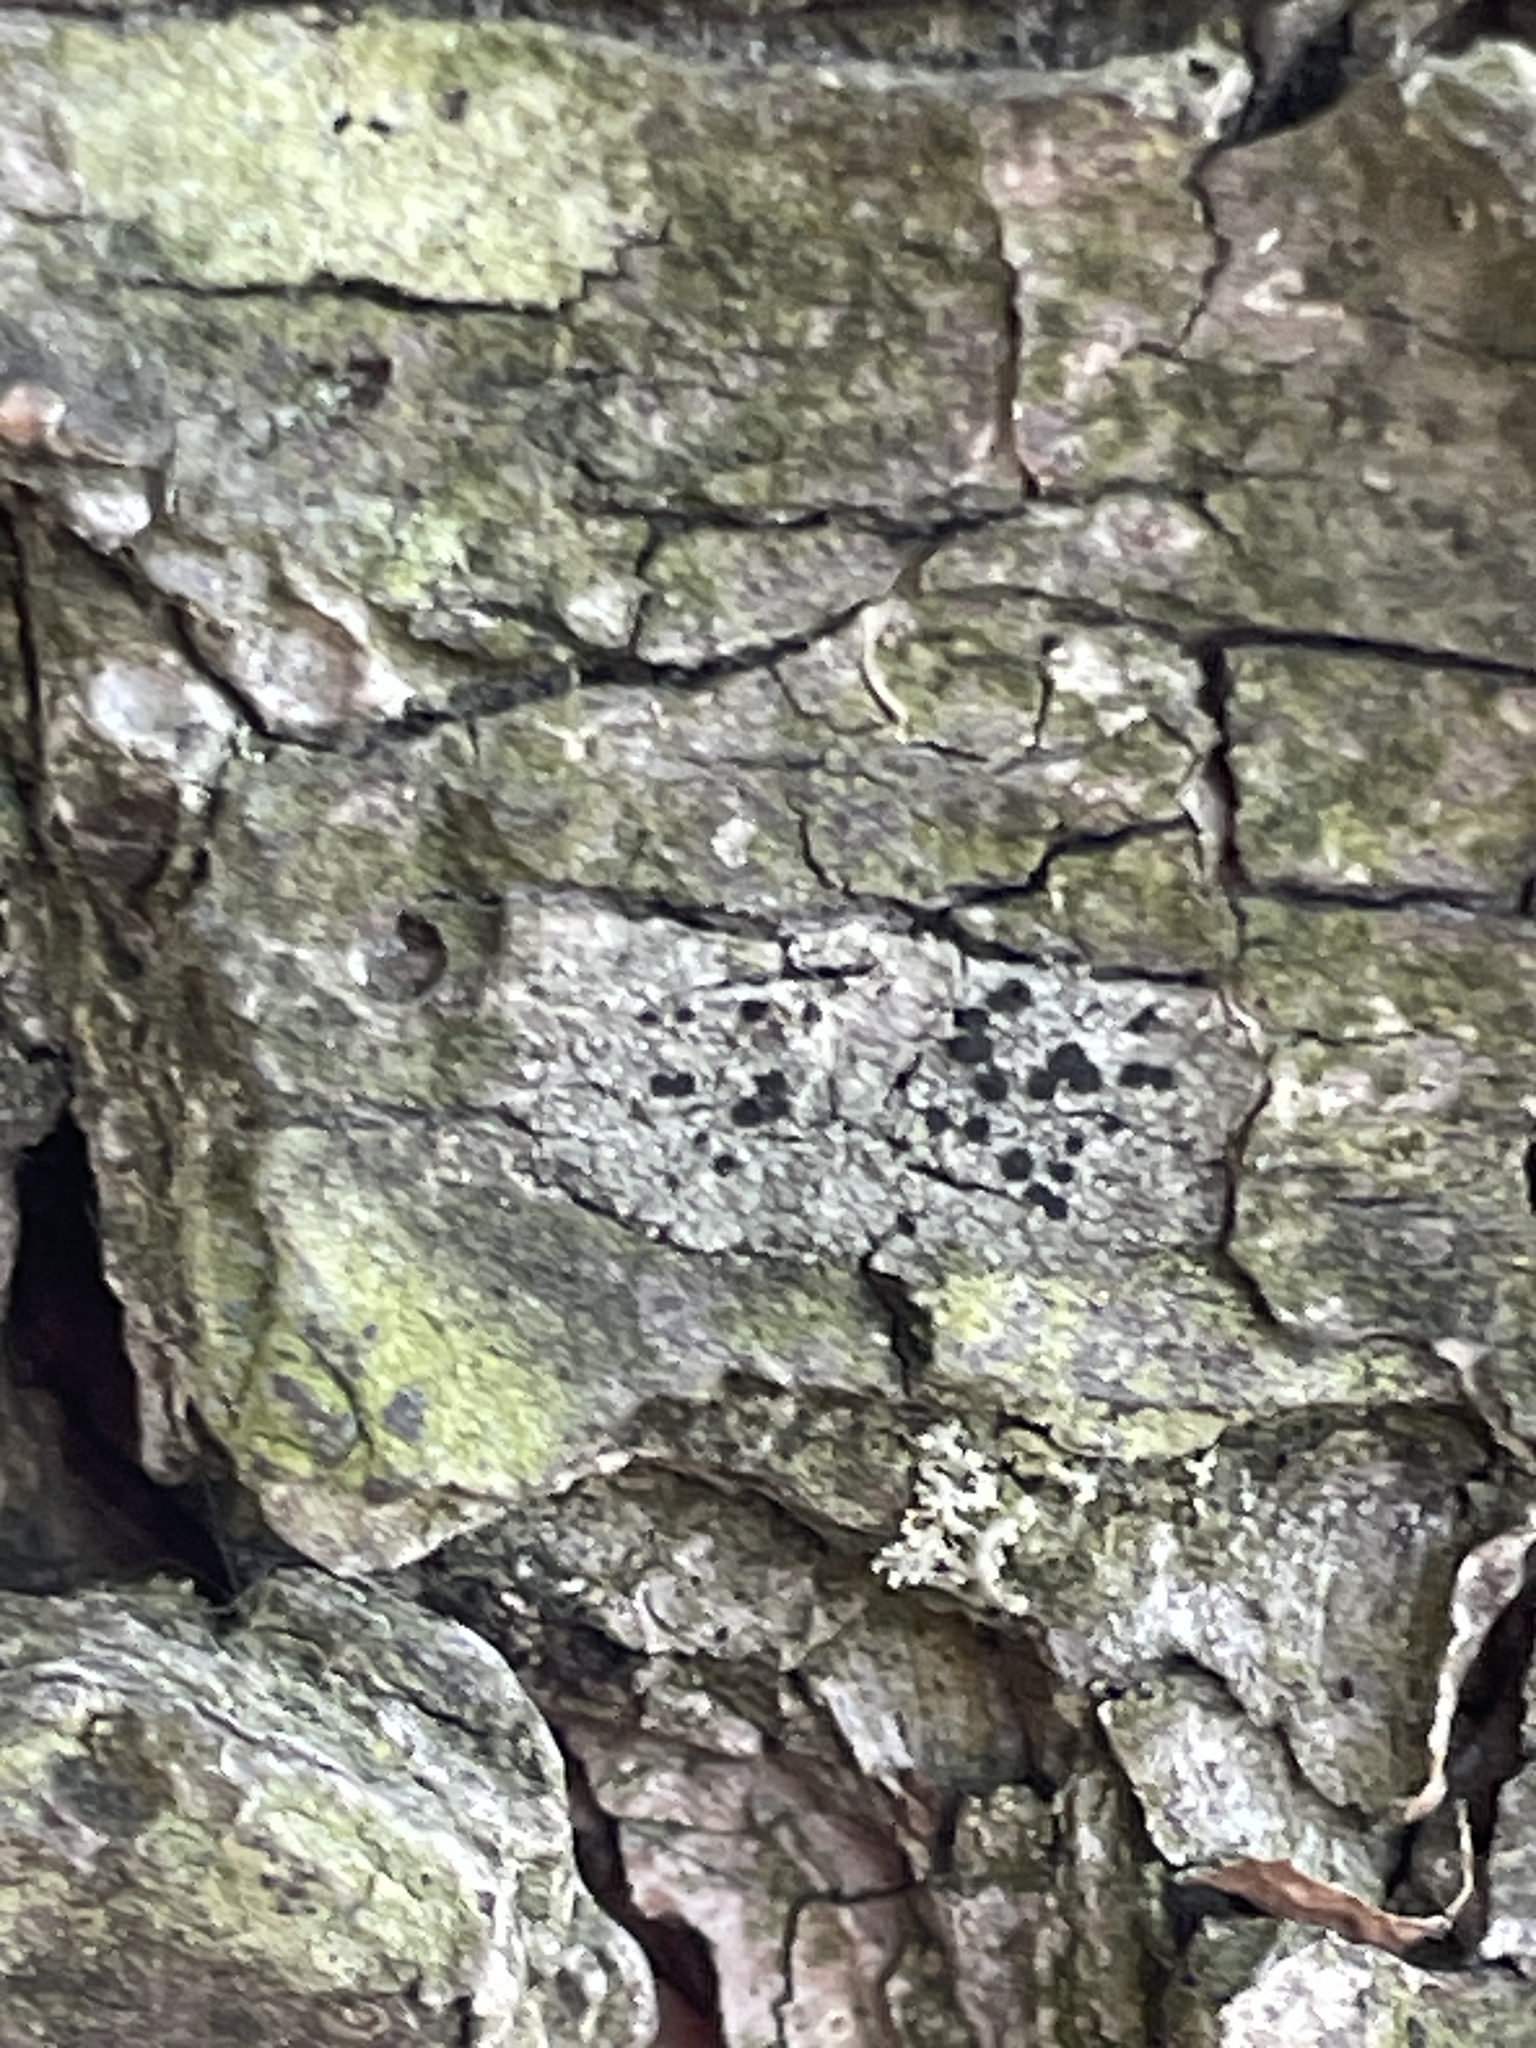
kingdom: Fungi
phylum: Ascomycota
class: Lecanoromycetes
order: Caliciales
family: Caliciaceae
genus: Amandinea
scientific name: Amandinea punctata
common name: Tiny button lichen
